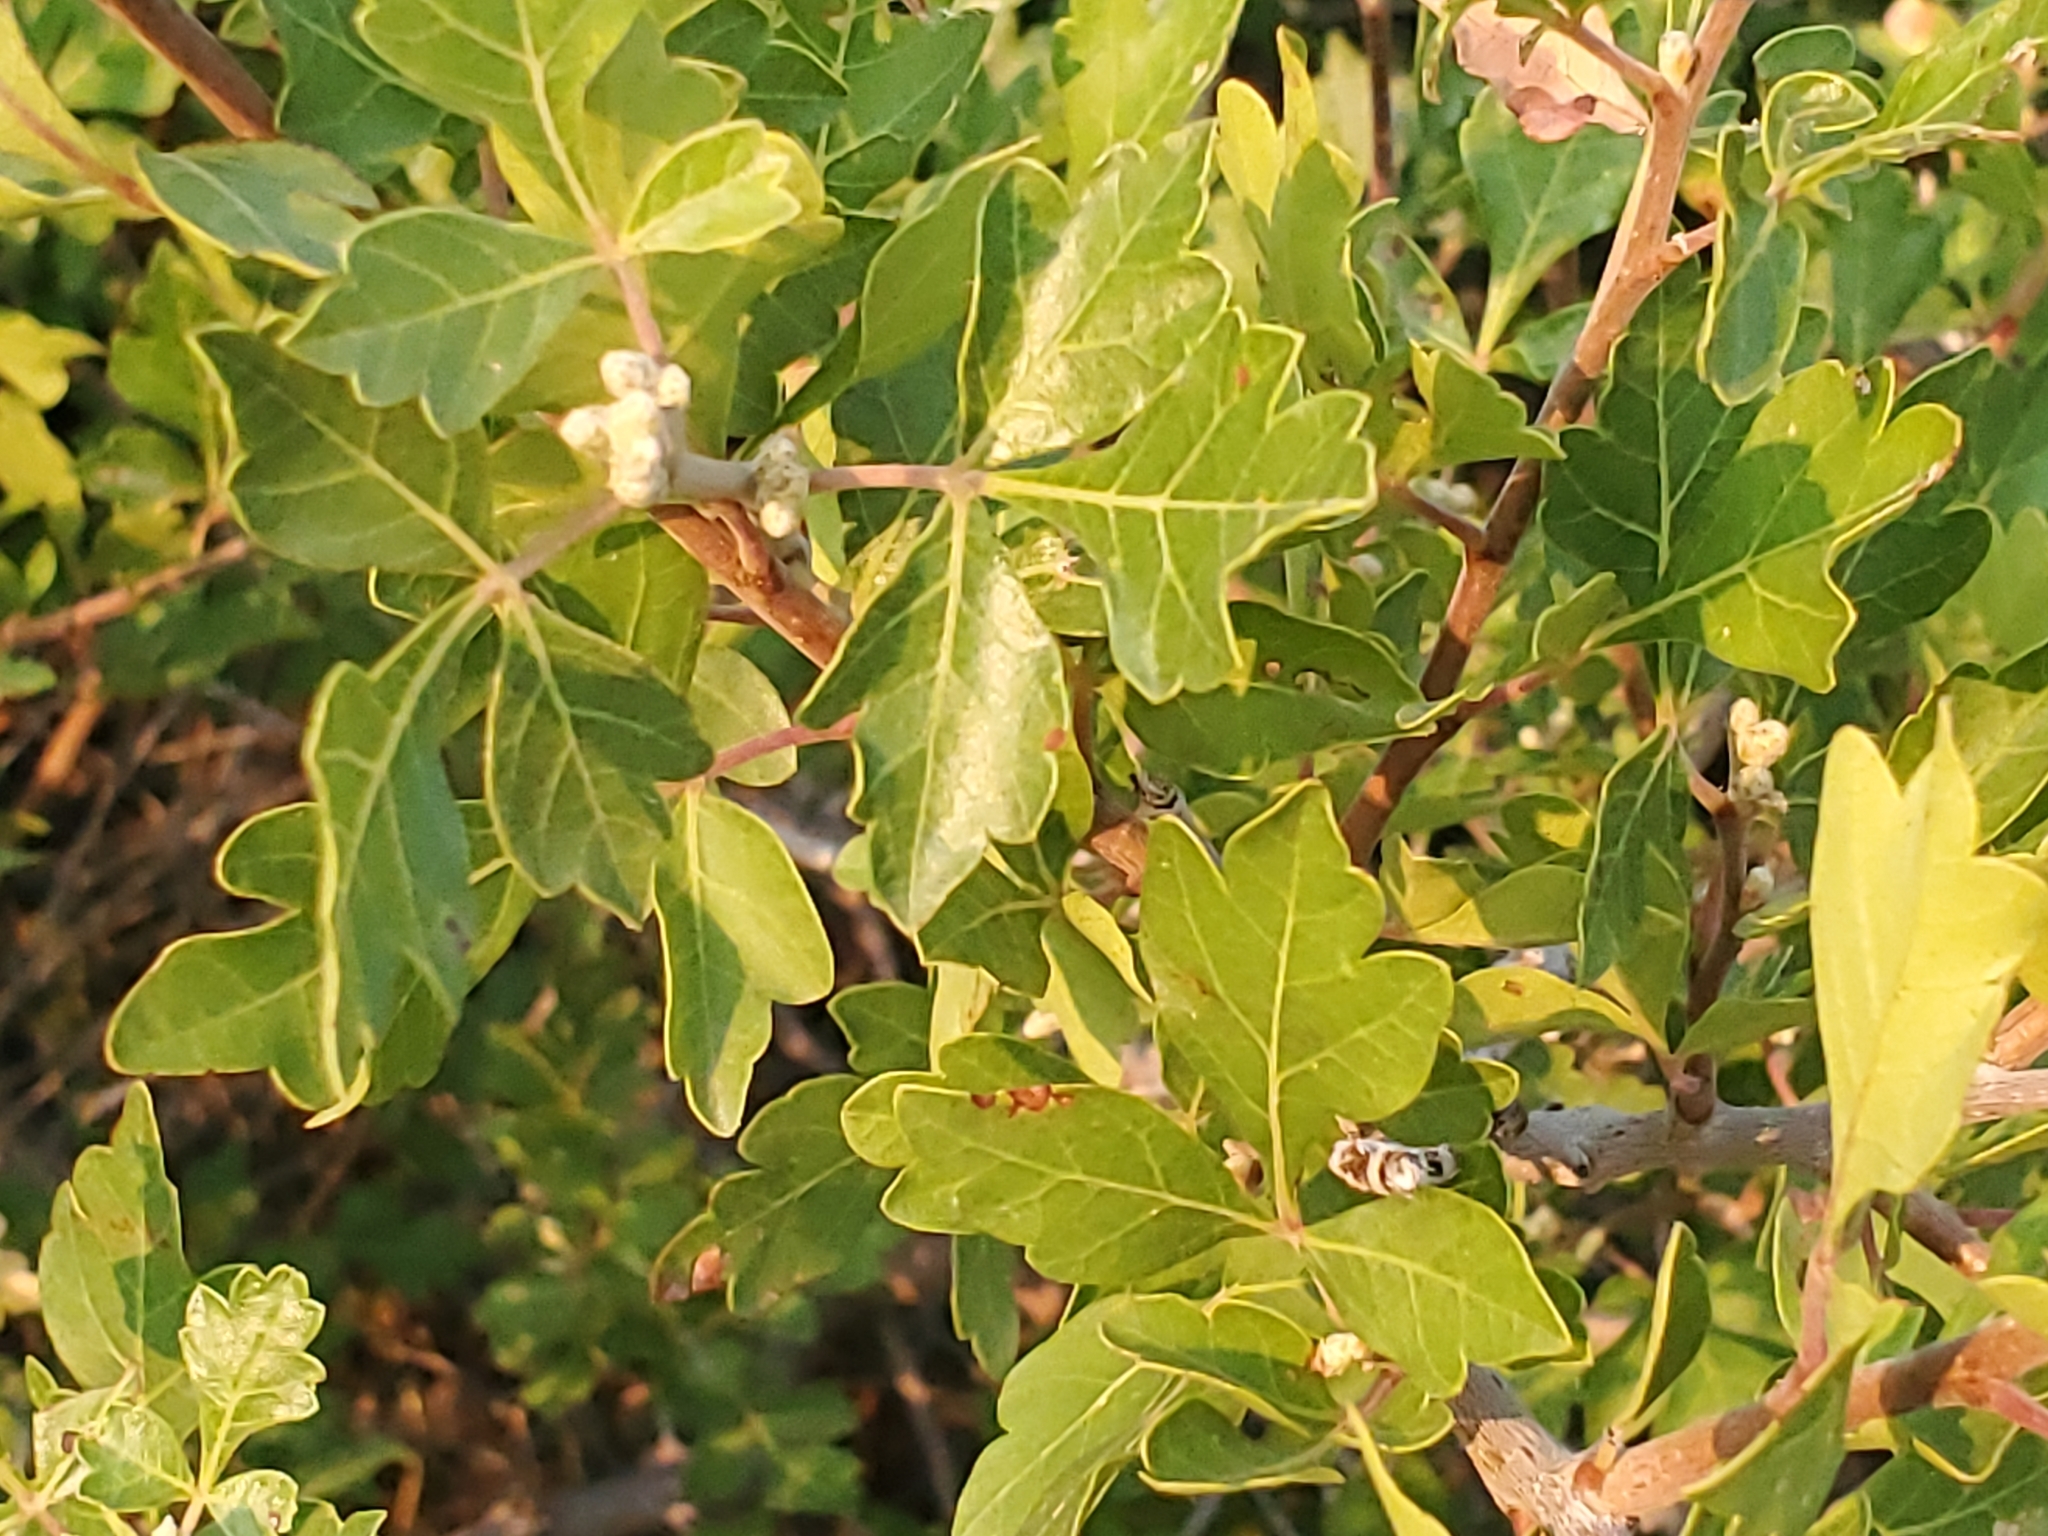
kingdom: Plantae
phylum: Tracheophyta
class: Magnoliopsida
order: Sapindales
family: Anacardiaceae
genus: Rhus
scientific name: Rhus aromatica
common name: Aromatic sumac
